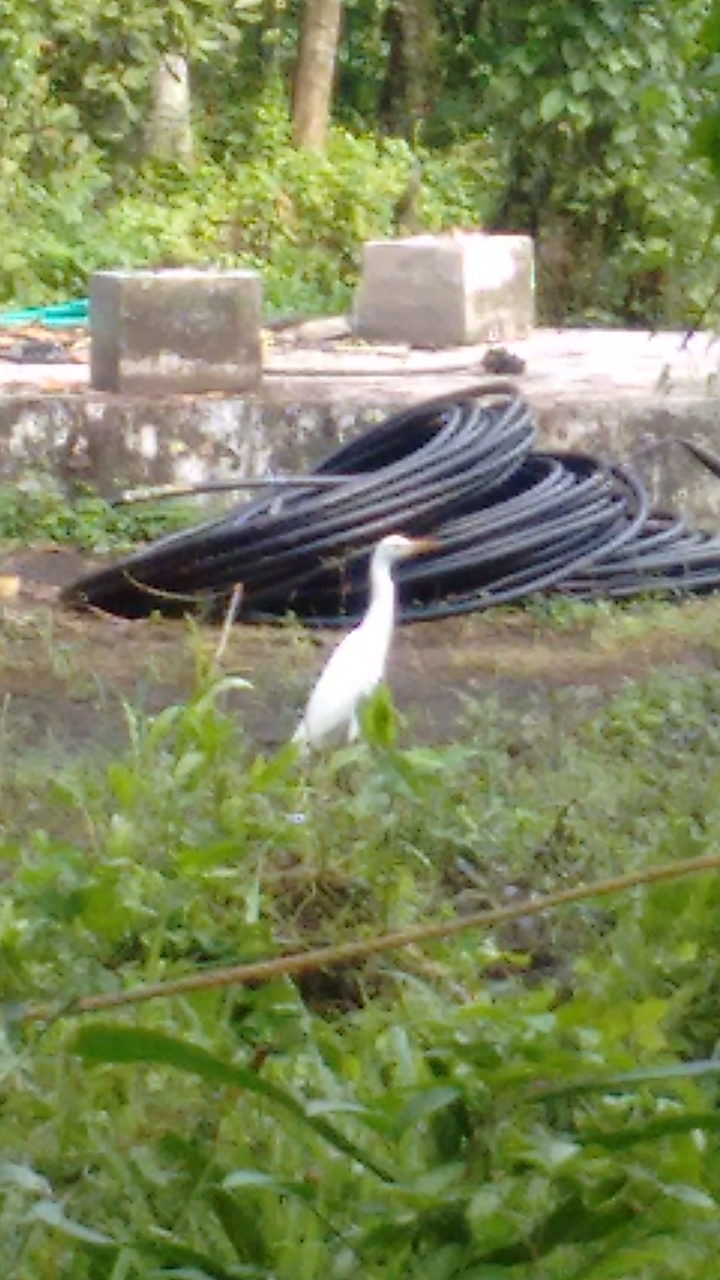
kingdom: Animalia
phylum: Chordata
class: Aves
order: Pelecaniformes
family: Ardeidae
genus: Bubulcus
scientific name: Bubulcus coromandus
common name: Eastern cattle egret
